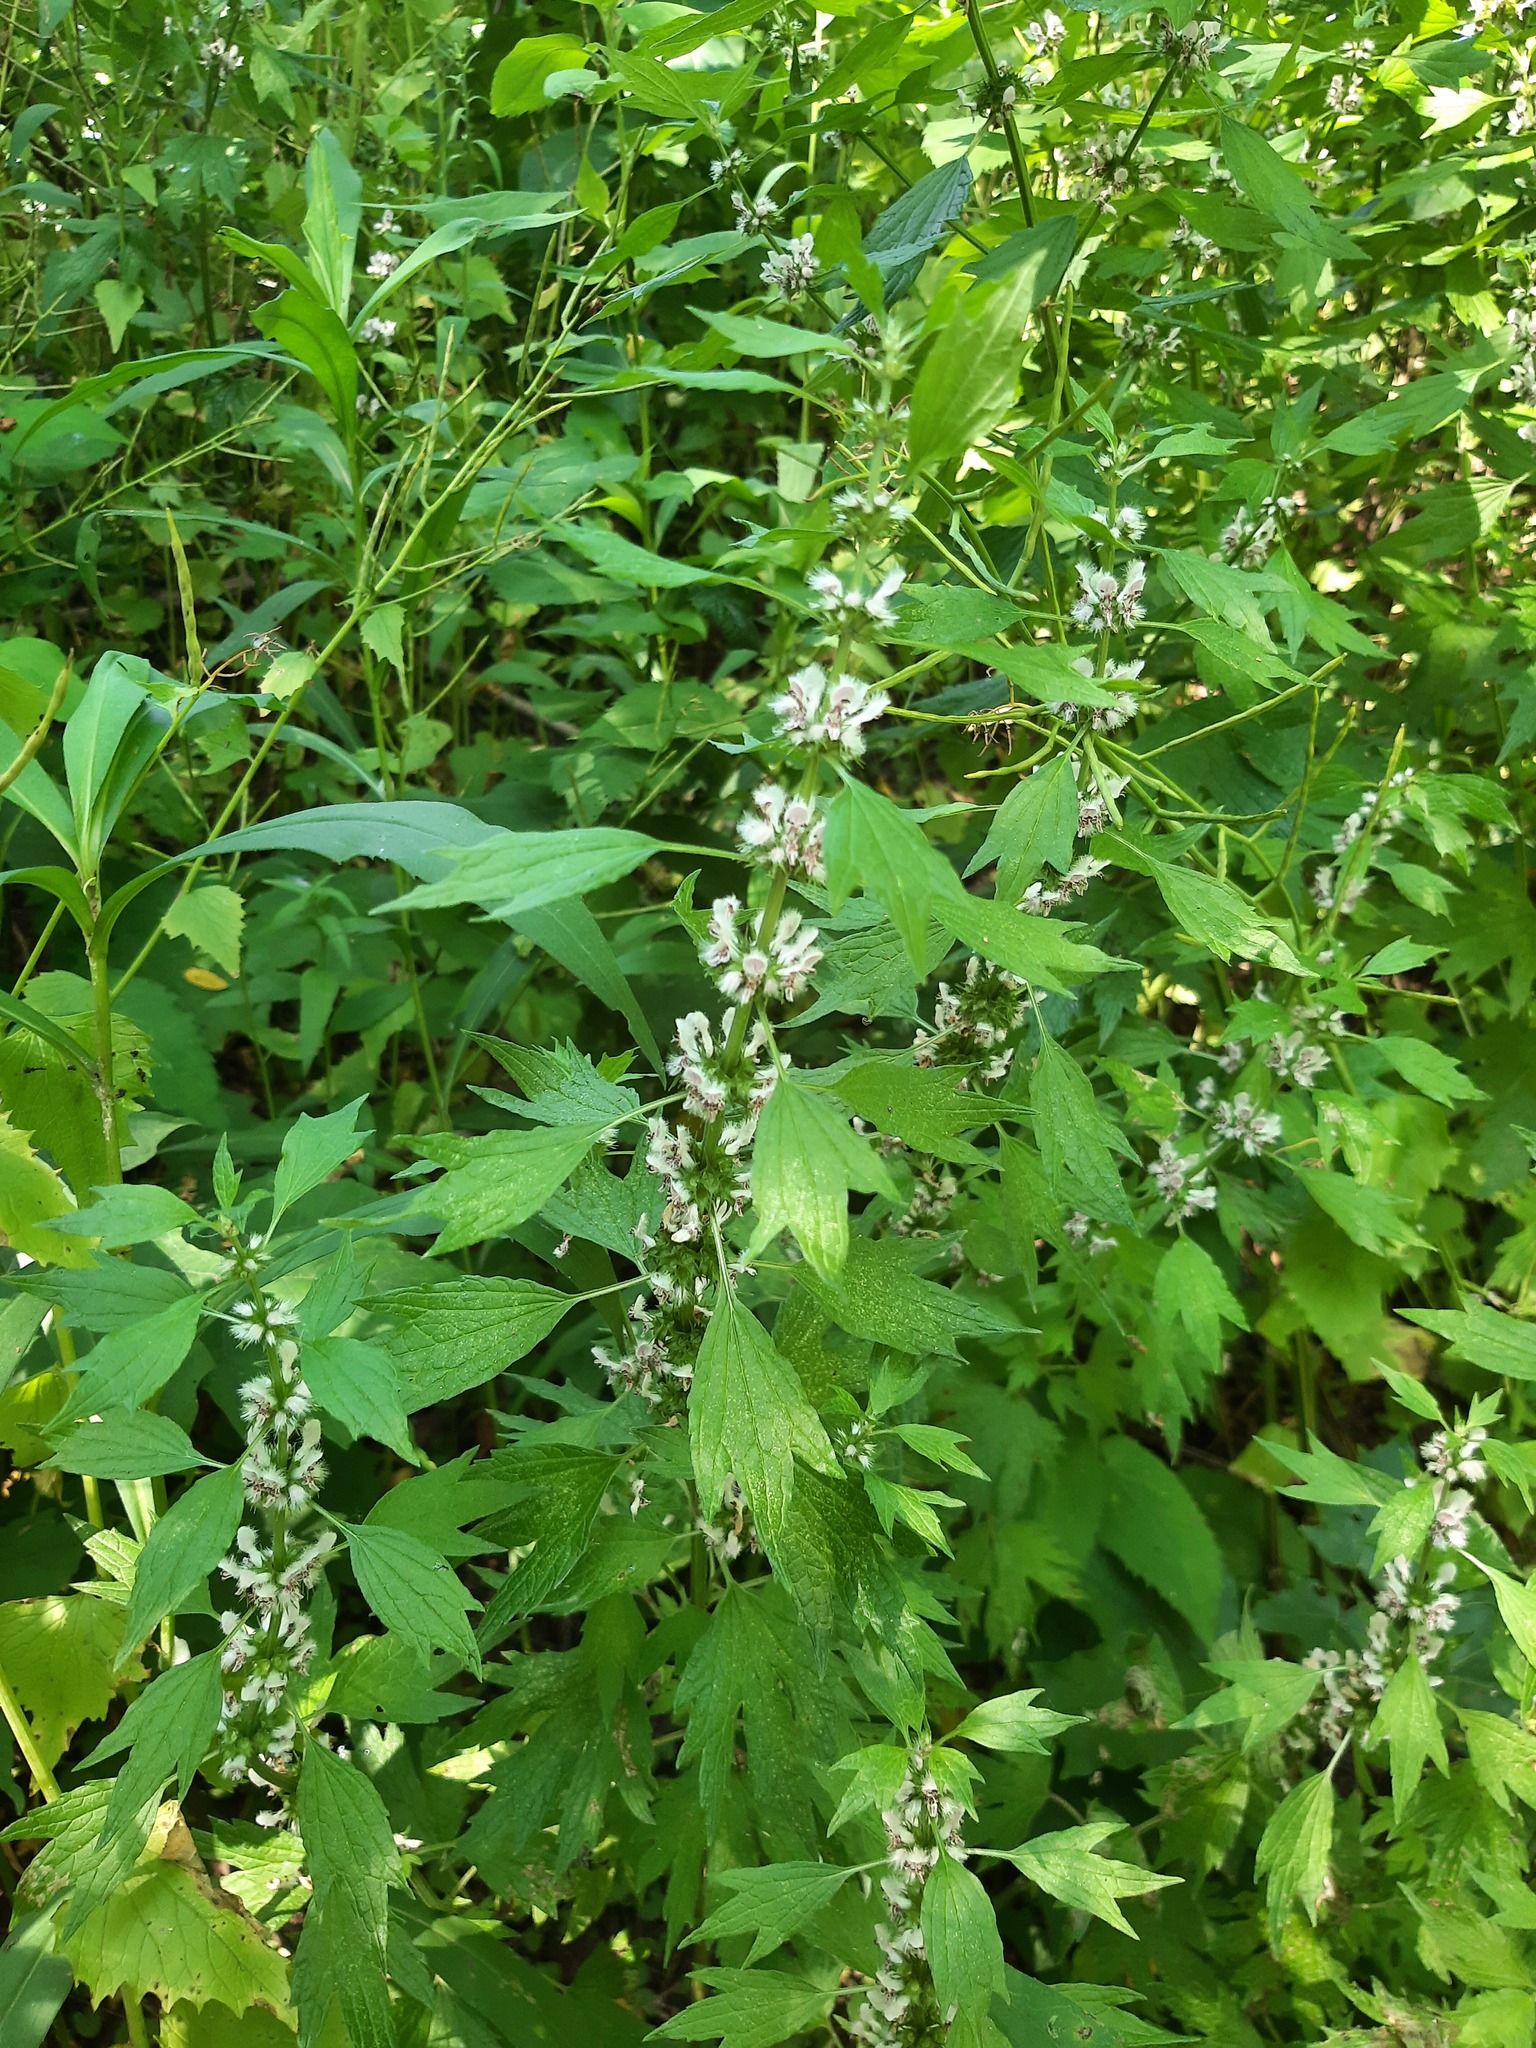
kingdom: Plantae
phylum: Tracheophyta
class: Magnoliopsida
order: Lamiales
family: Lamiaceae
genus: Leonurus
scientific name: Leonurus cardiaca
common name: Motherwort
